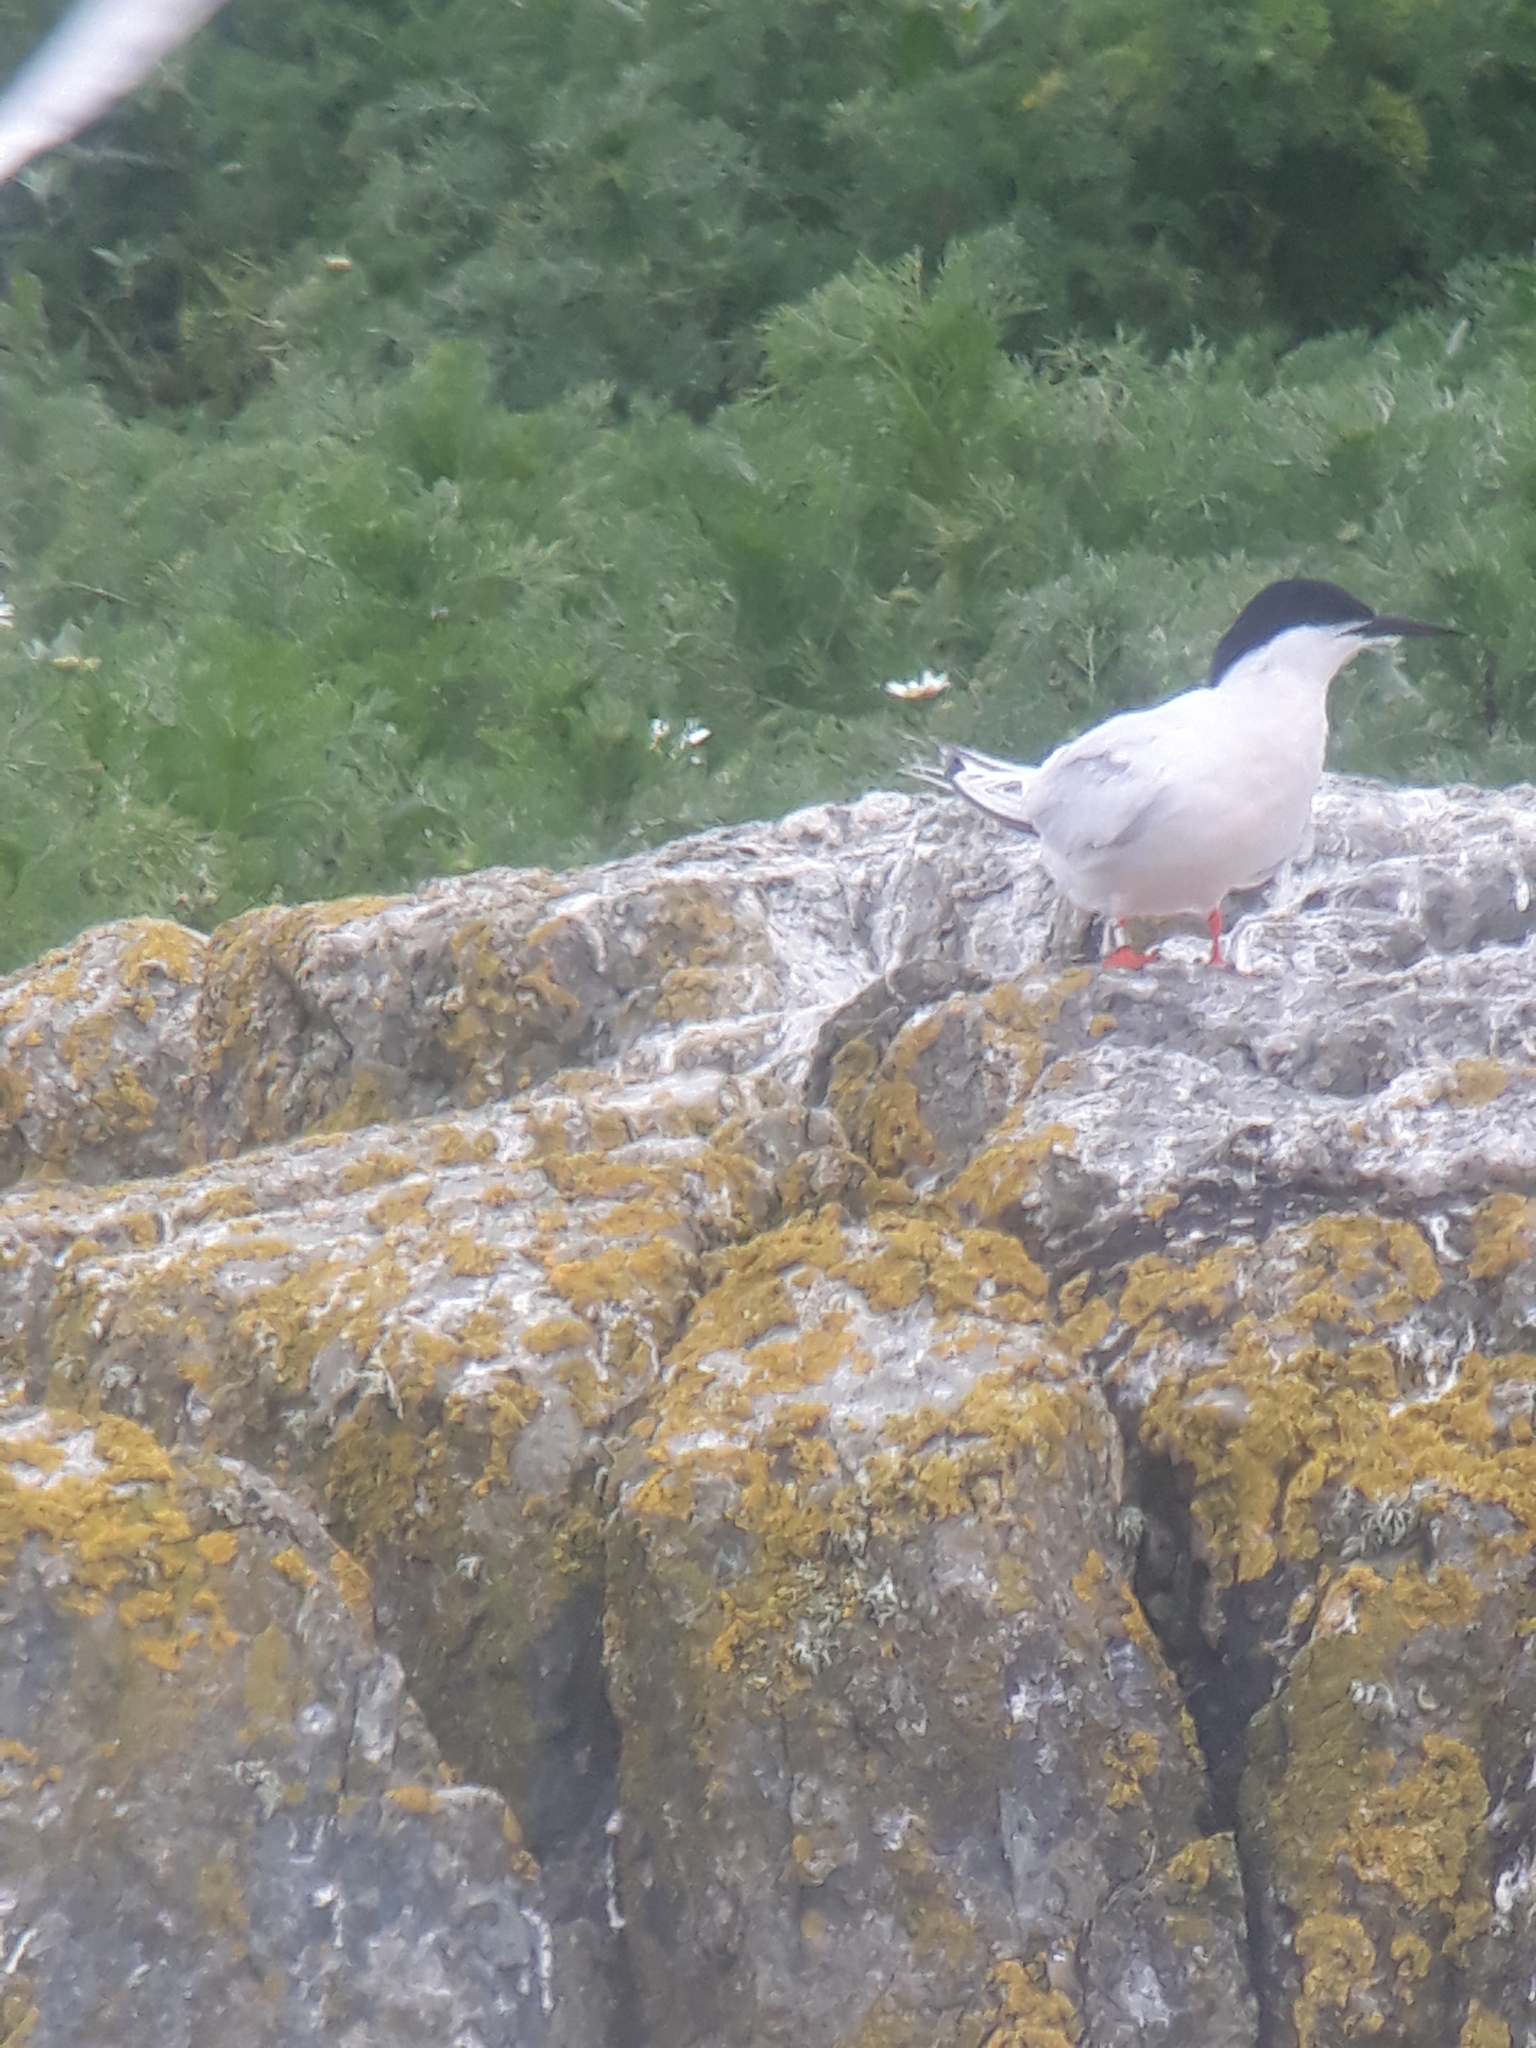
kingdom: Animalia
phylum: Chordata
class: Aves
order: Charadriiformes
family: Laridae
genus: Sterna
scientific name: Sterna dougallii
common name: Roseate tern
